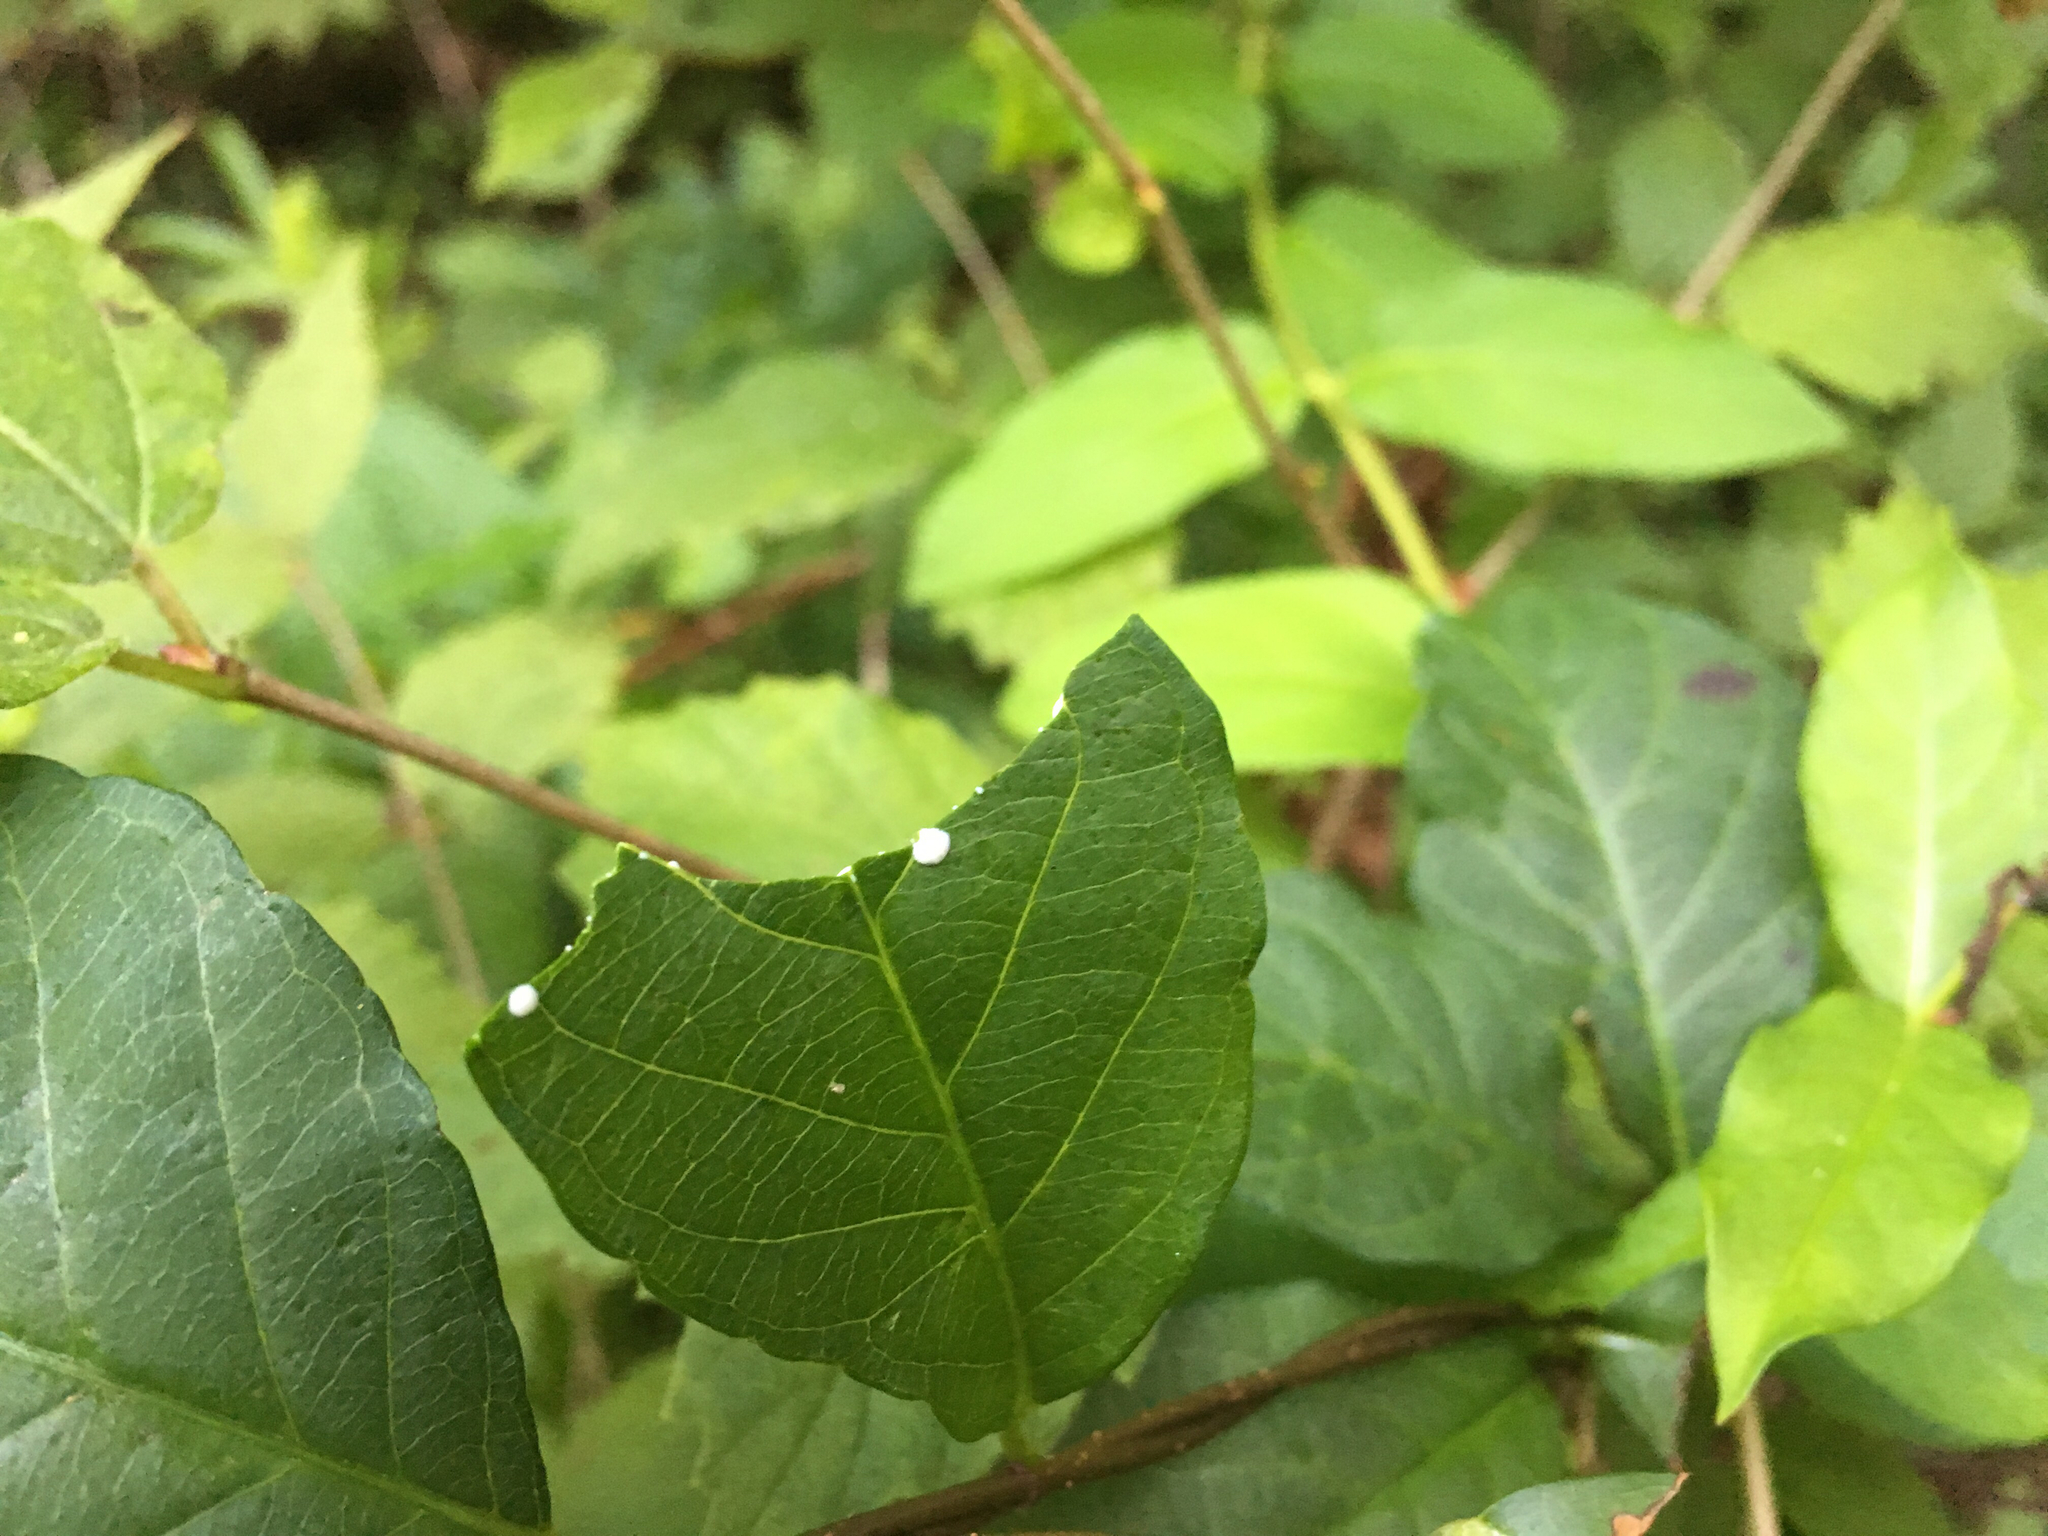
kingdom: Plantae
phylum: Tracheophyta
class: Magnoliopsida
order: Gentianales
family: Apocynaceae
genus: Thyrsanthella
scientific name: Thyrsanthella difformis
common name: Climbing dogbane
